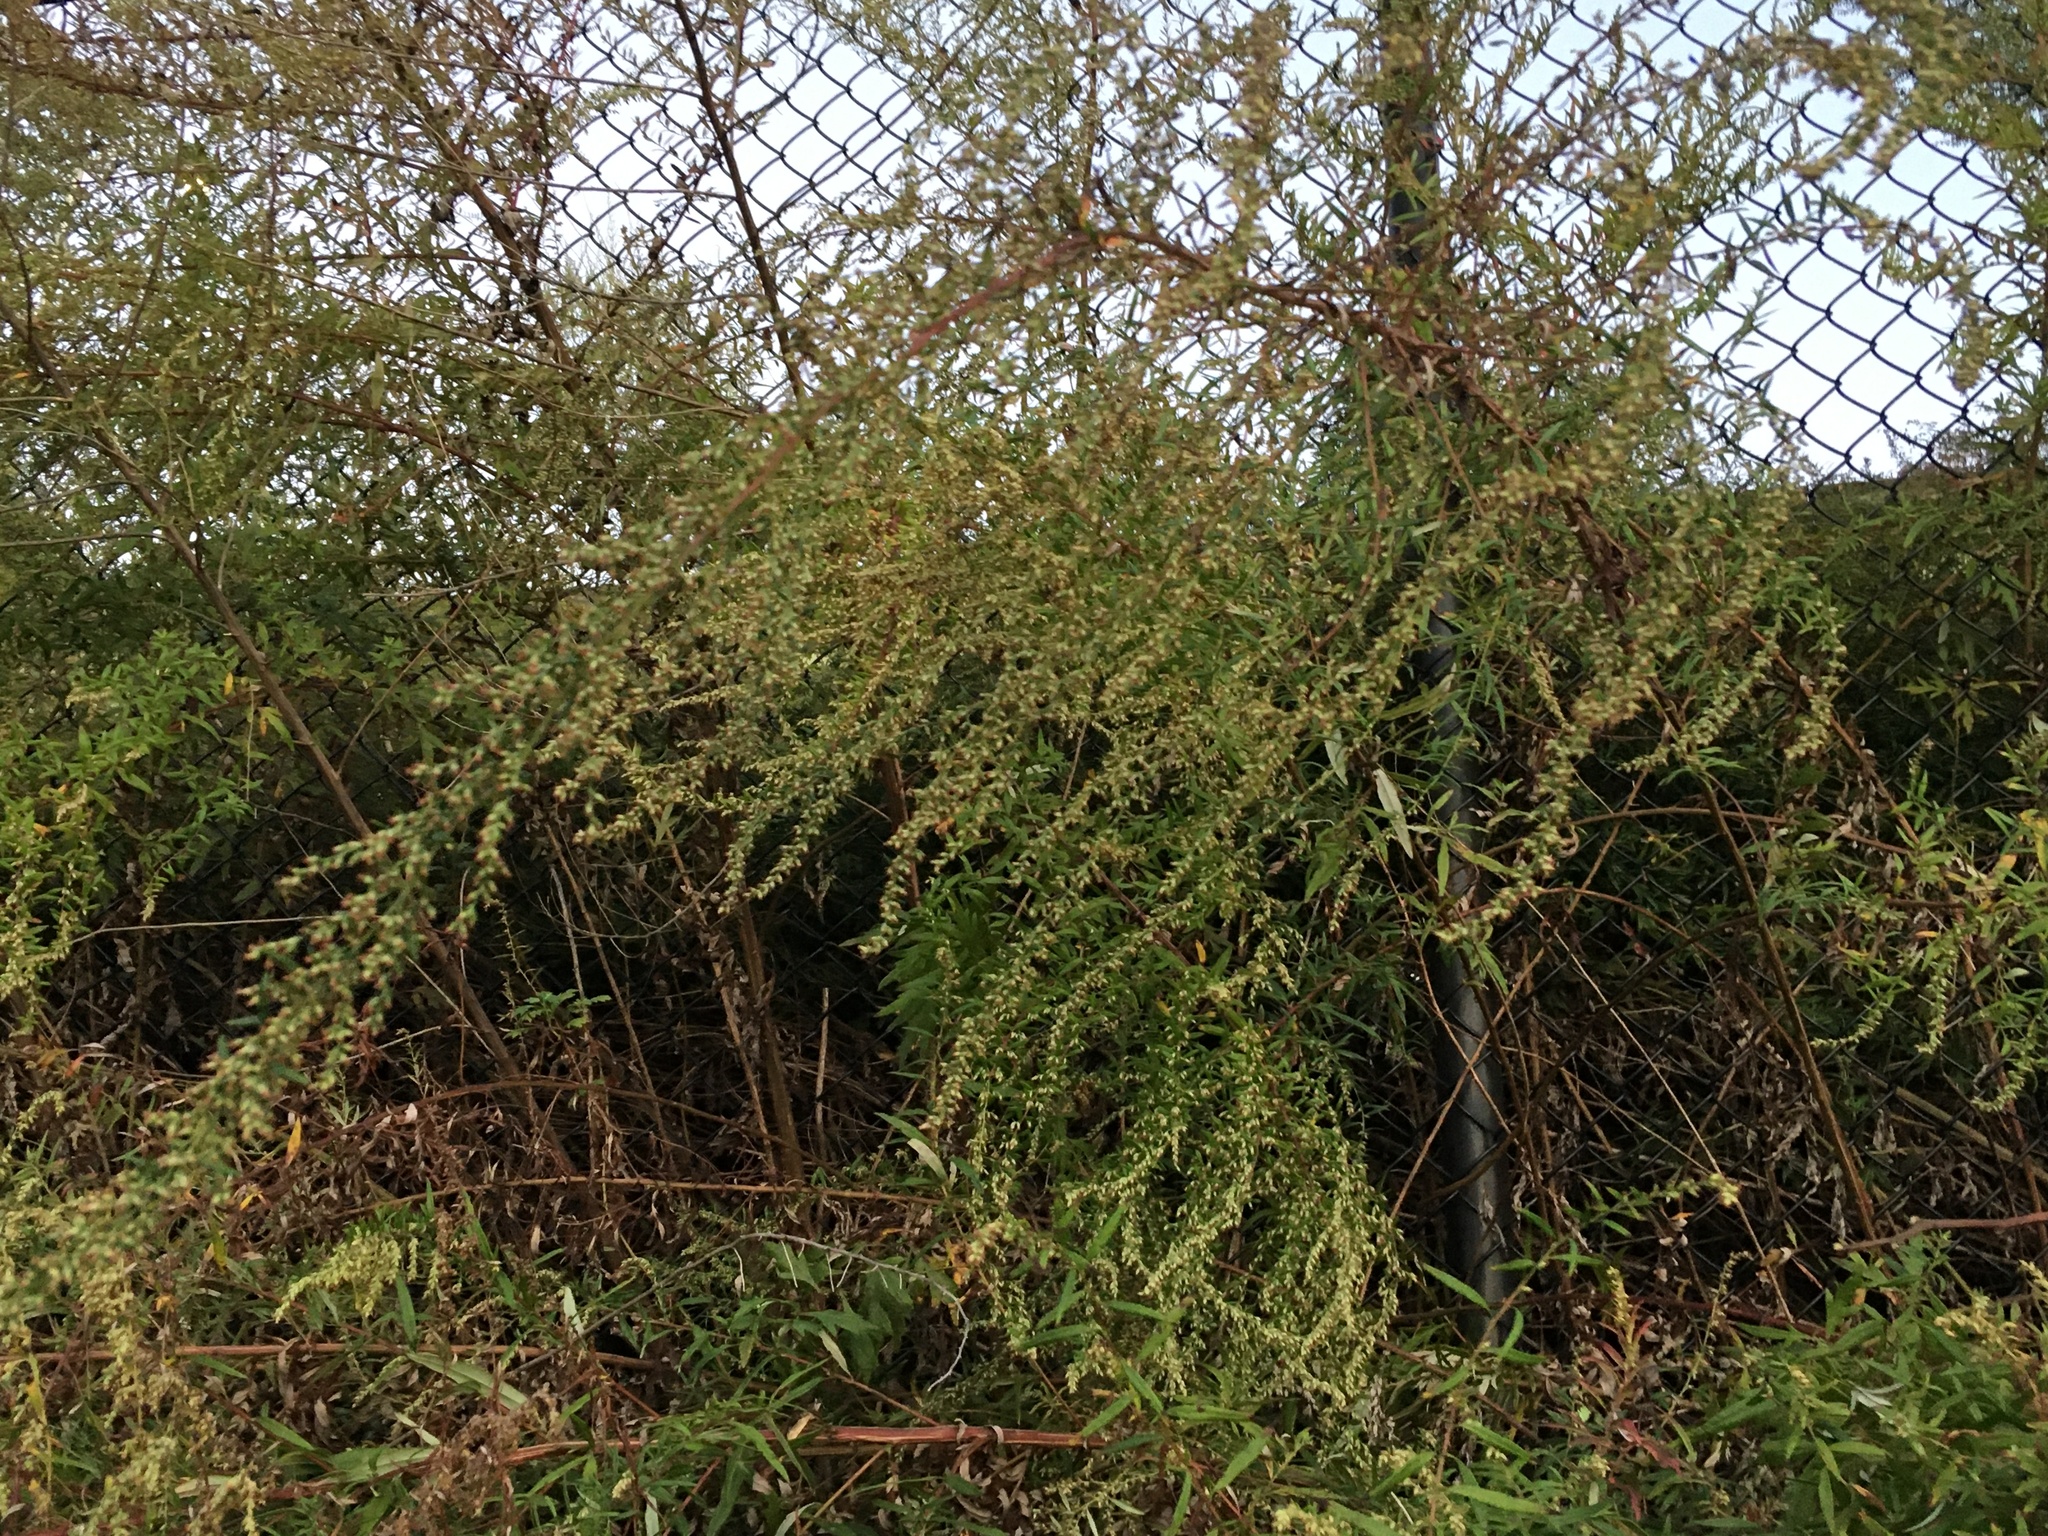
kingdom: Plantae
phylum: Tracheophyta
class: Magnoliopsida
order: Asterales
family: Asteraceae
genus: Artemisia
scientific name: Artemisia vulgaris
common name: Mugwort
